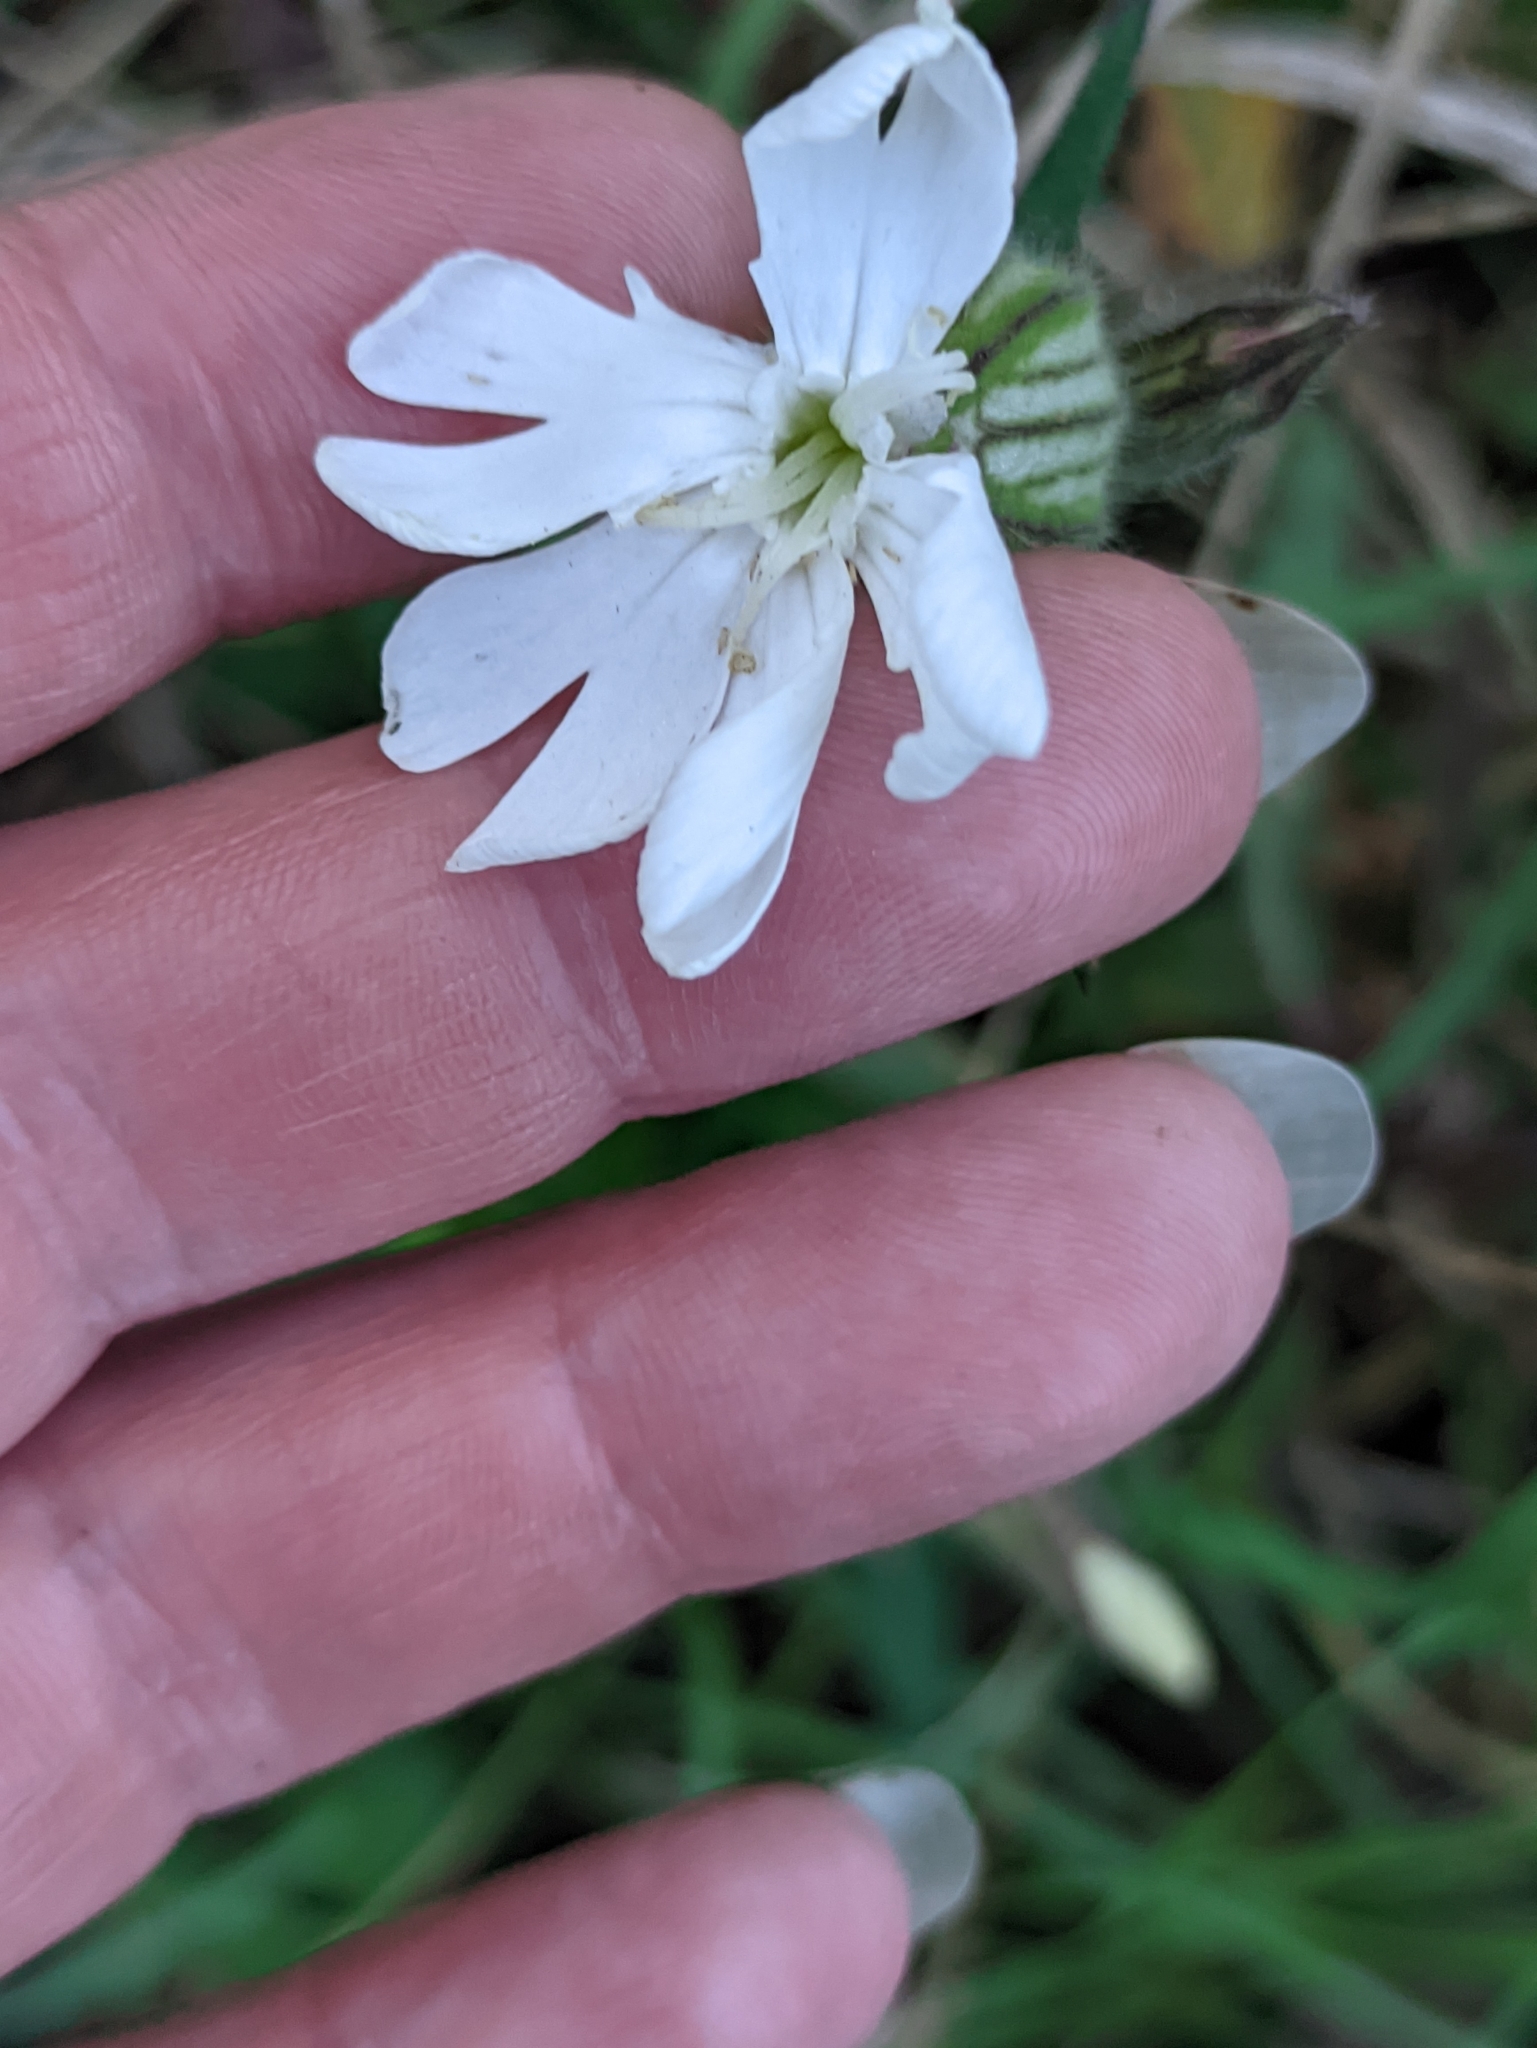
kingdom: Plantae
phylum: Tracheophyta
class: Magnoliopsida
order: Caryophyllales
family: Caryophyllaceae
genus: Silene
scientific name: Silene latifolia
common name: White campion
